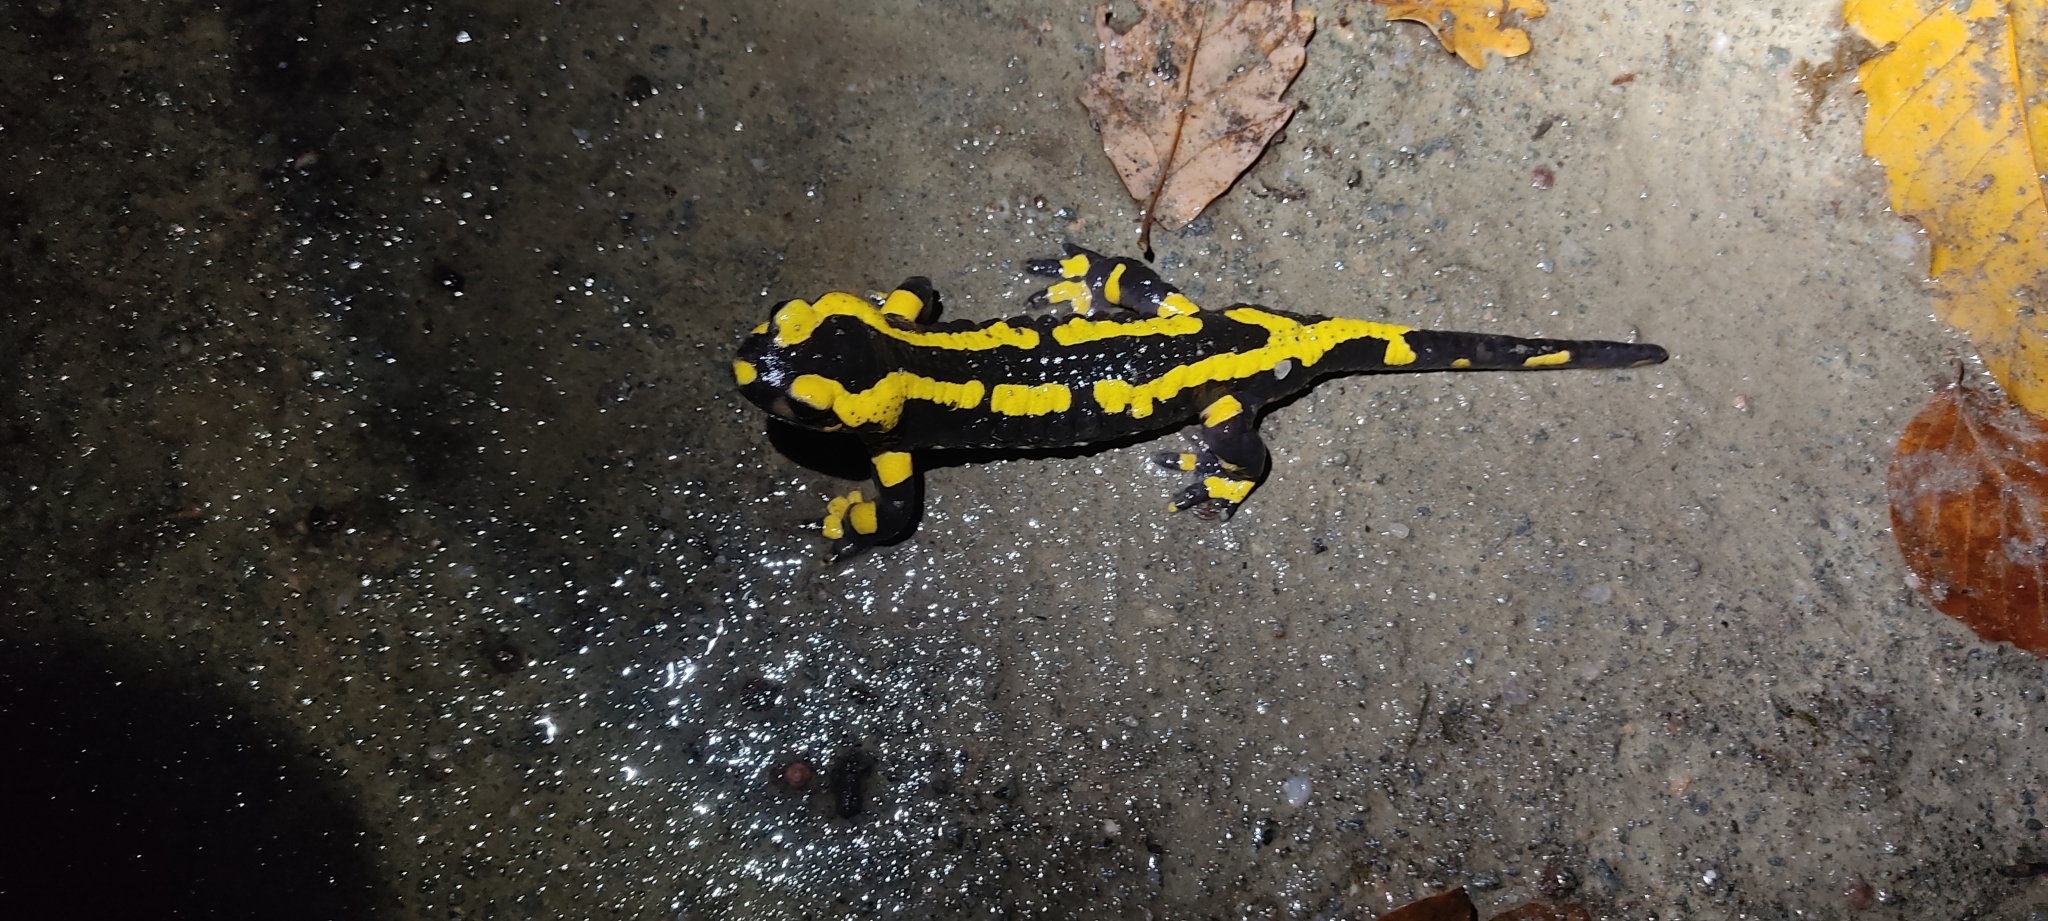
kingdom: Animalia
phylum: Chordata
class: Amphibia
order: Caudata
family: Salamandridae
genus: Salamandra
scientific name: Salamandra salamandra
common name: Fire salamander
